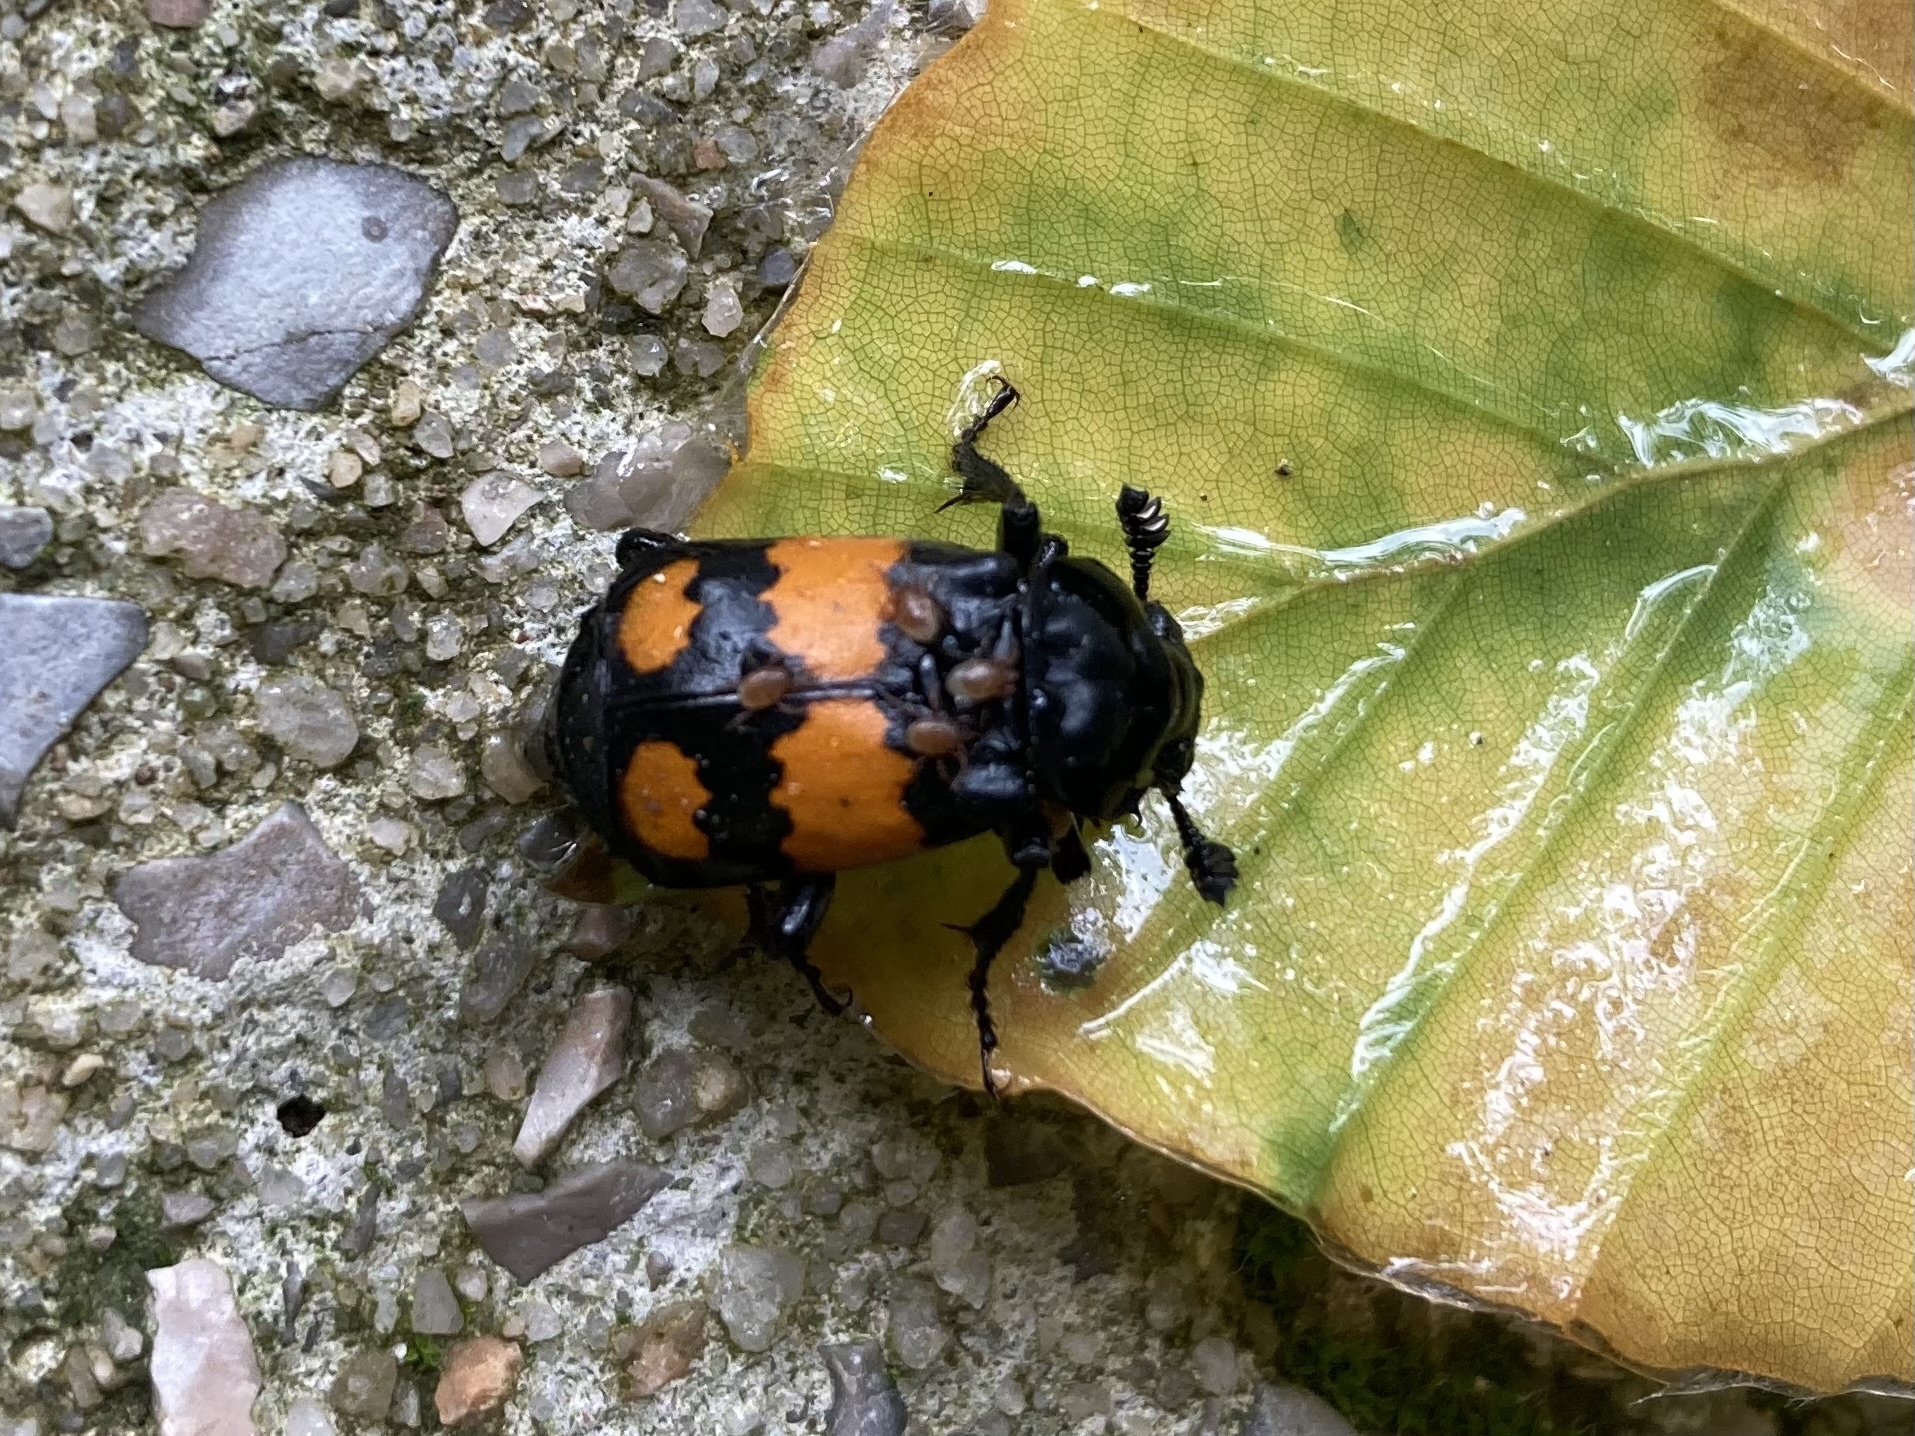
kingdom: Animalia
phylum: Arthropoda
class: Insecta
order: Coleoptera
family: Staphylinidae
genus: Nicrophorus
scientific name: Nicrophorus vespilloides
